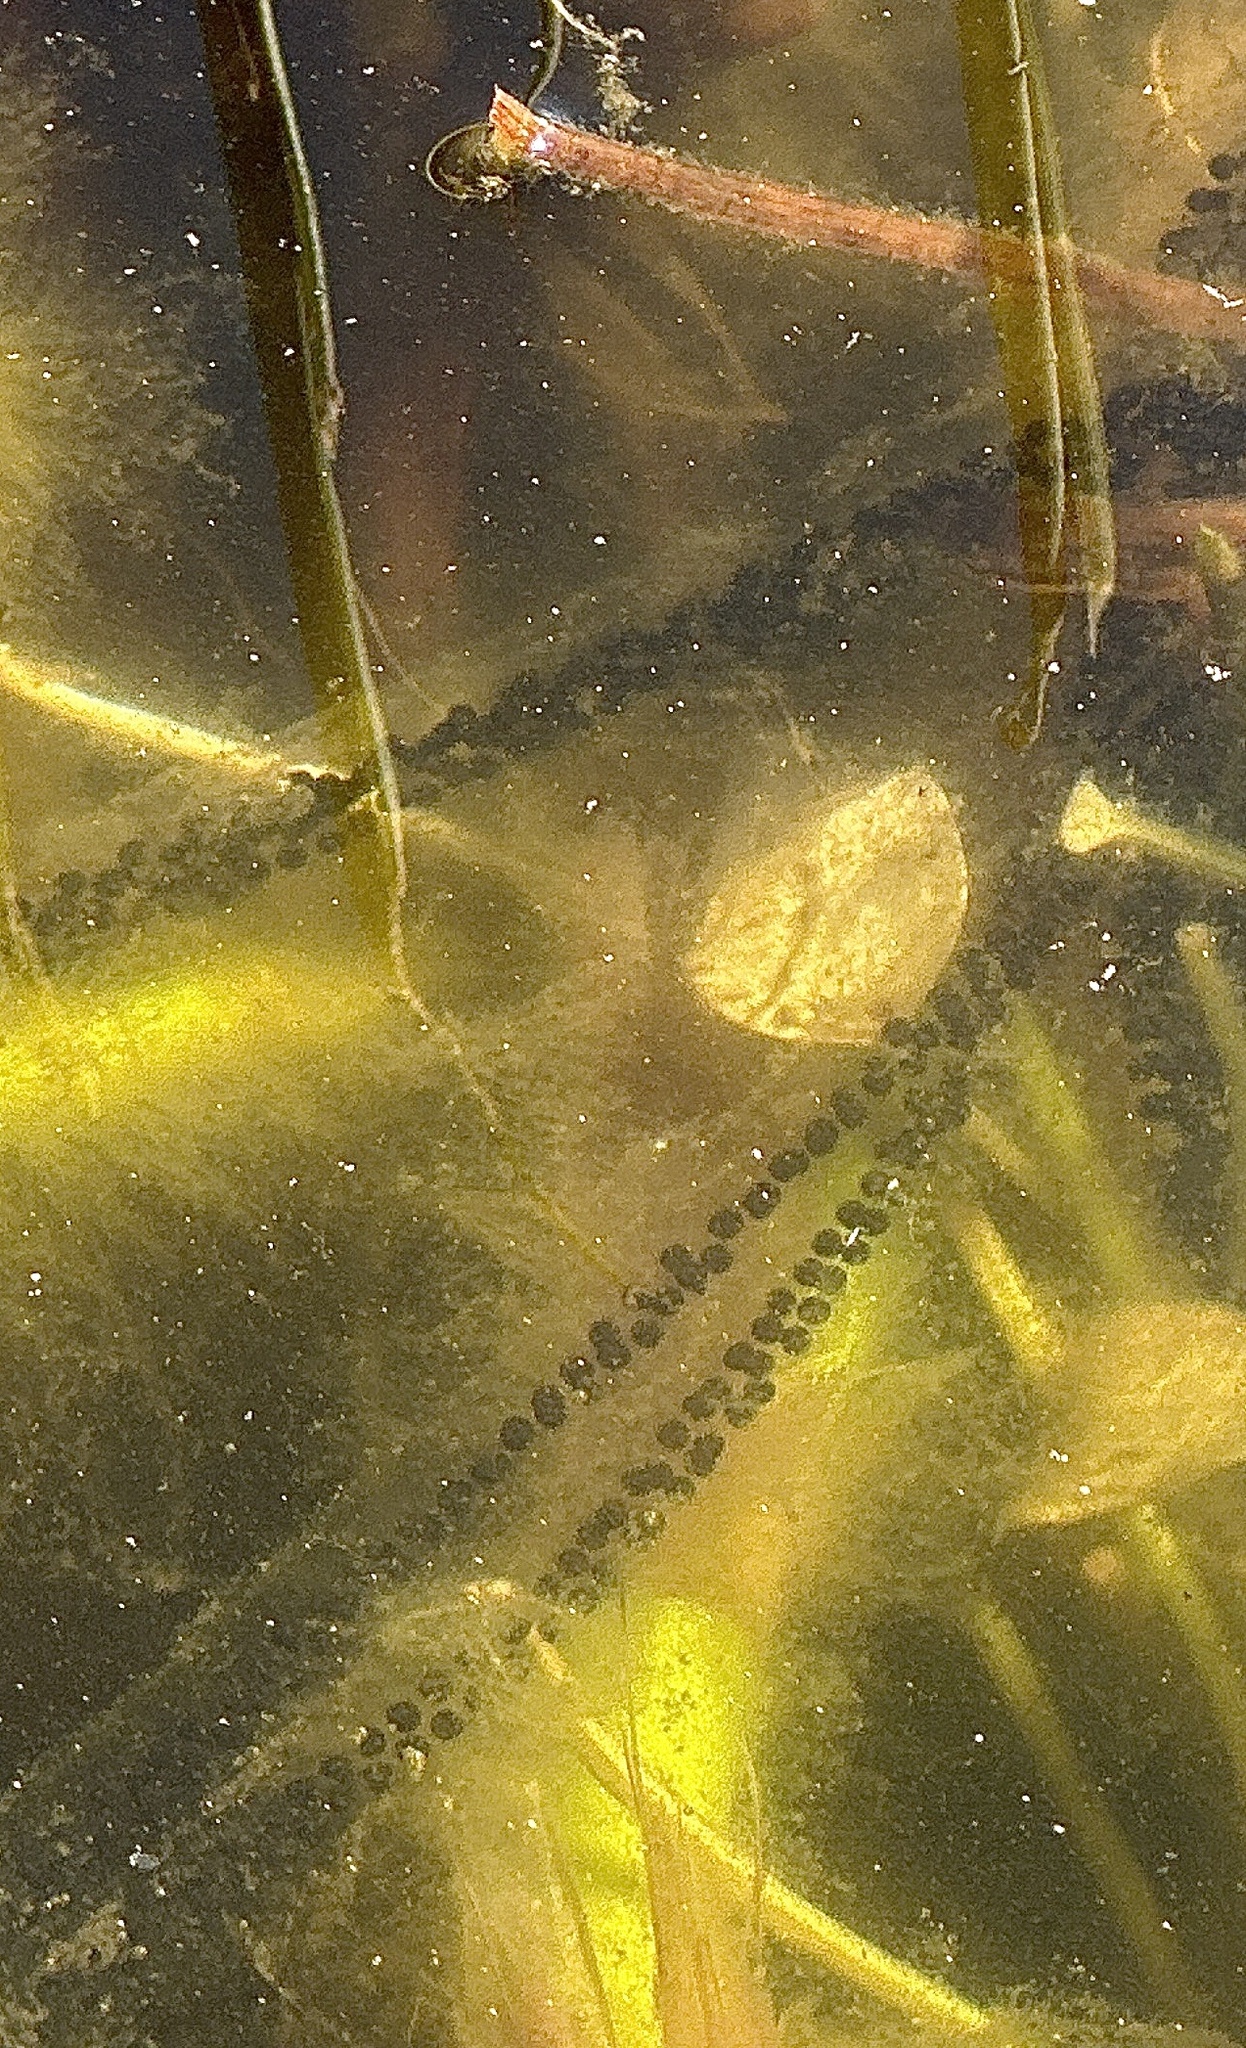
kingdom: Animalia
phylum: Chordata
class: Amphibia
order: Anura
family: Bufonidae
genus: Bufo
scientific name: Bufo bufo
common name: Common toad
